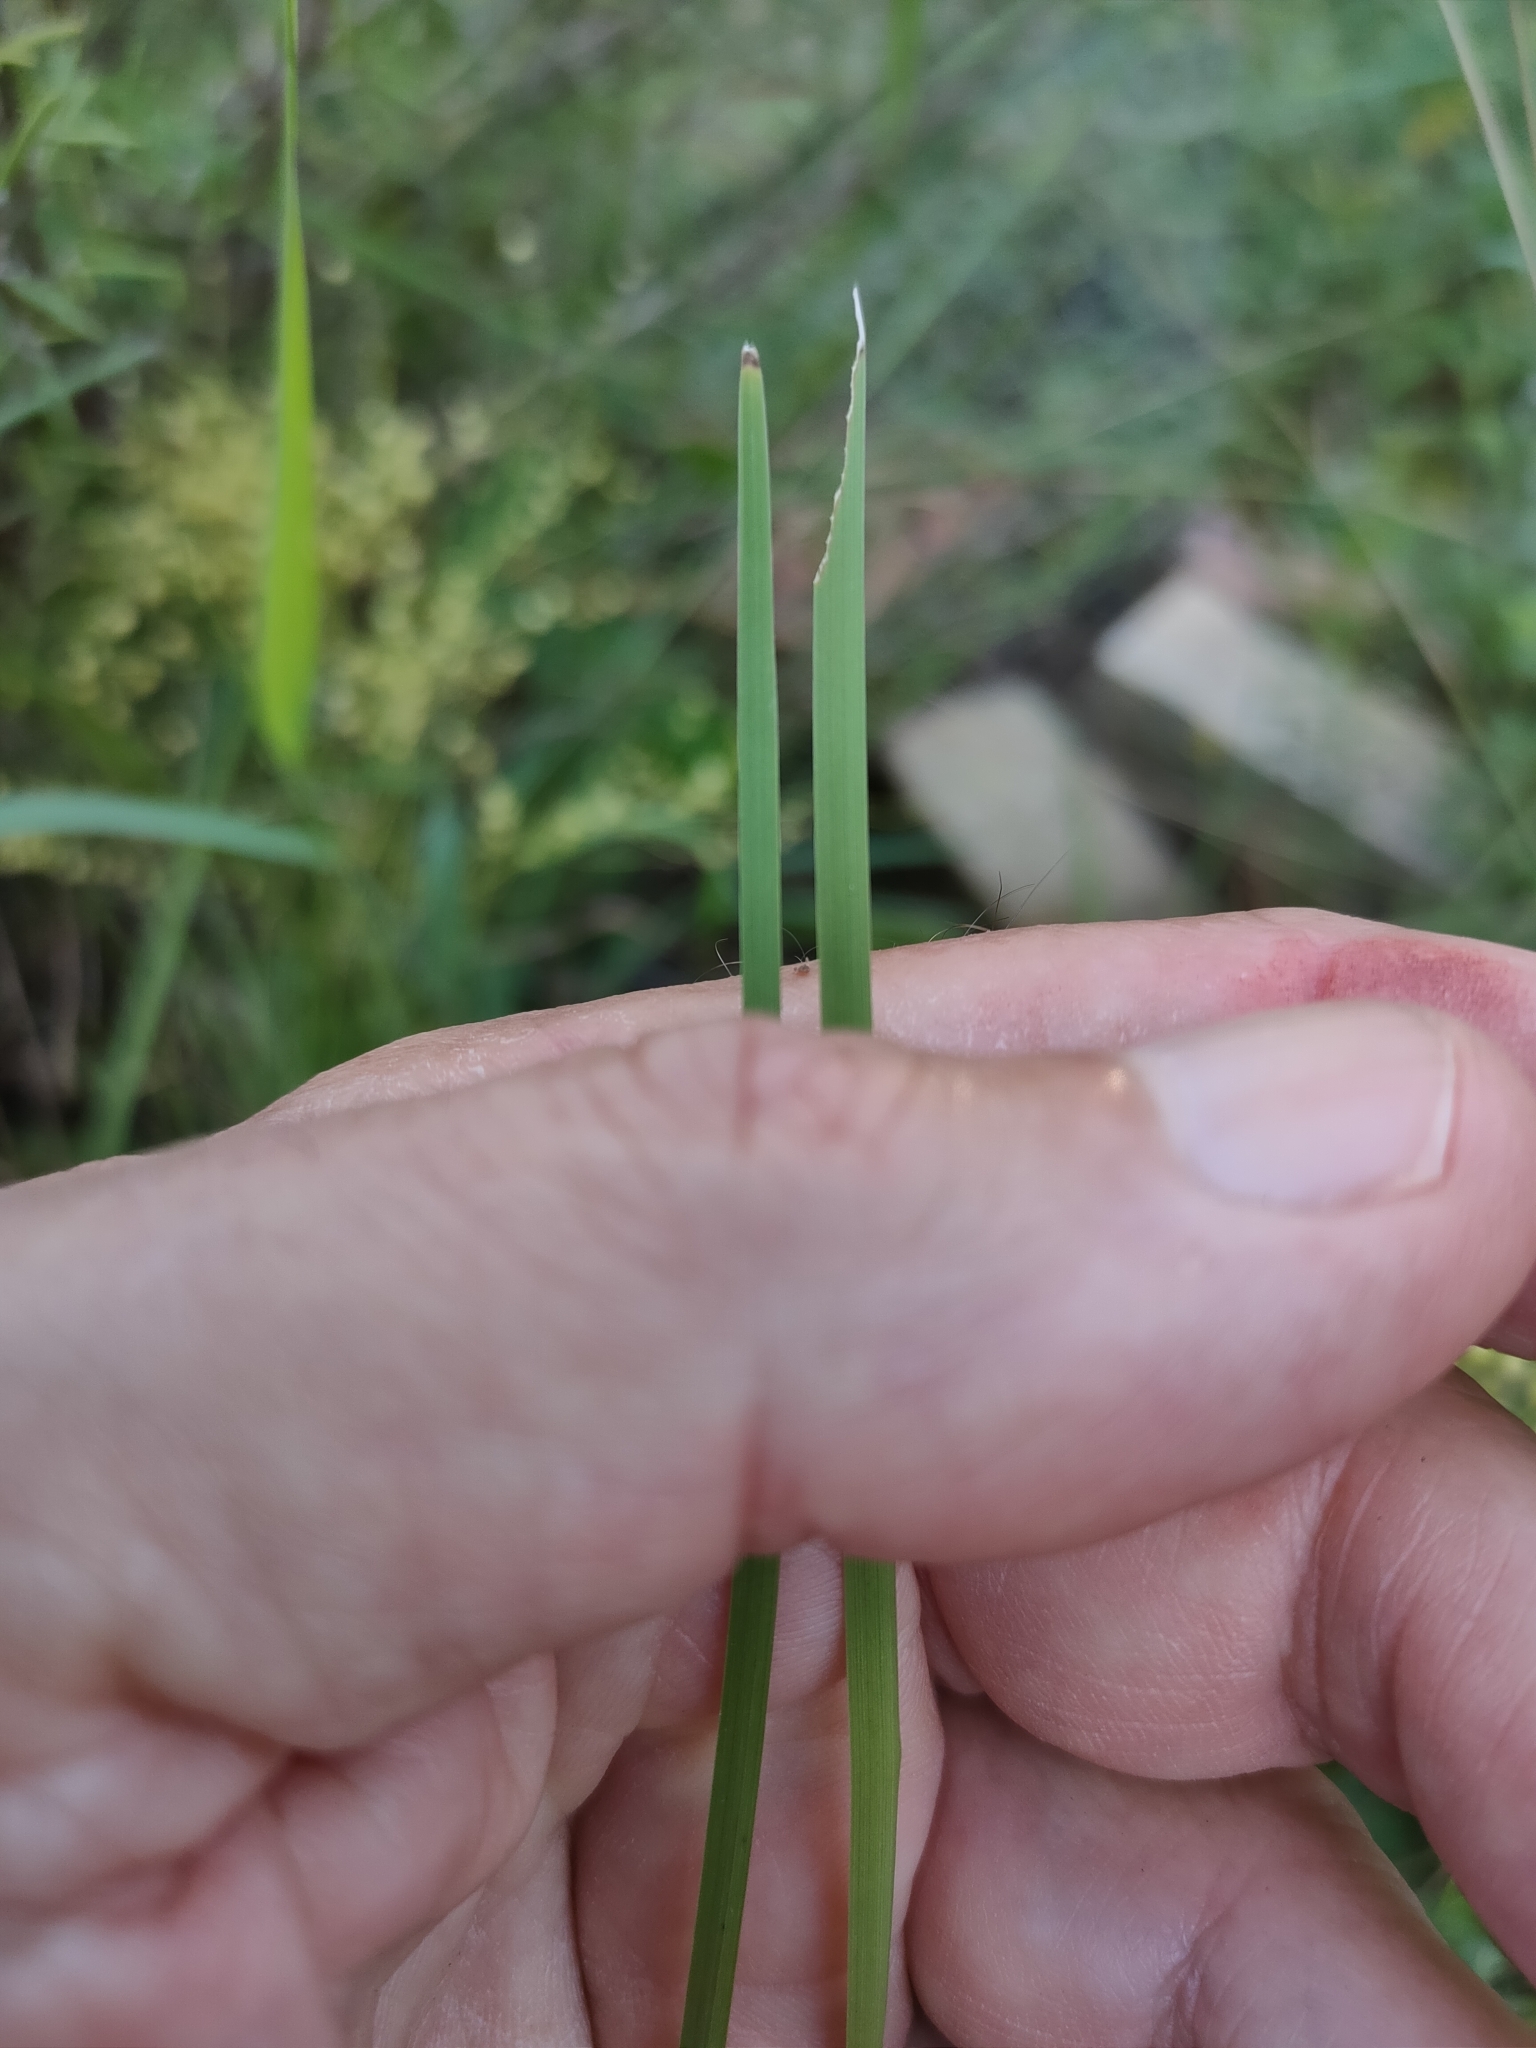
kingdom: Plantae
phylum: Tracheophyta
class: Liliopsida
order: Asparagales
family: Asparagaceae
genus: Lomandra
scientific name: Lomandra laxa
